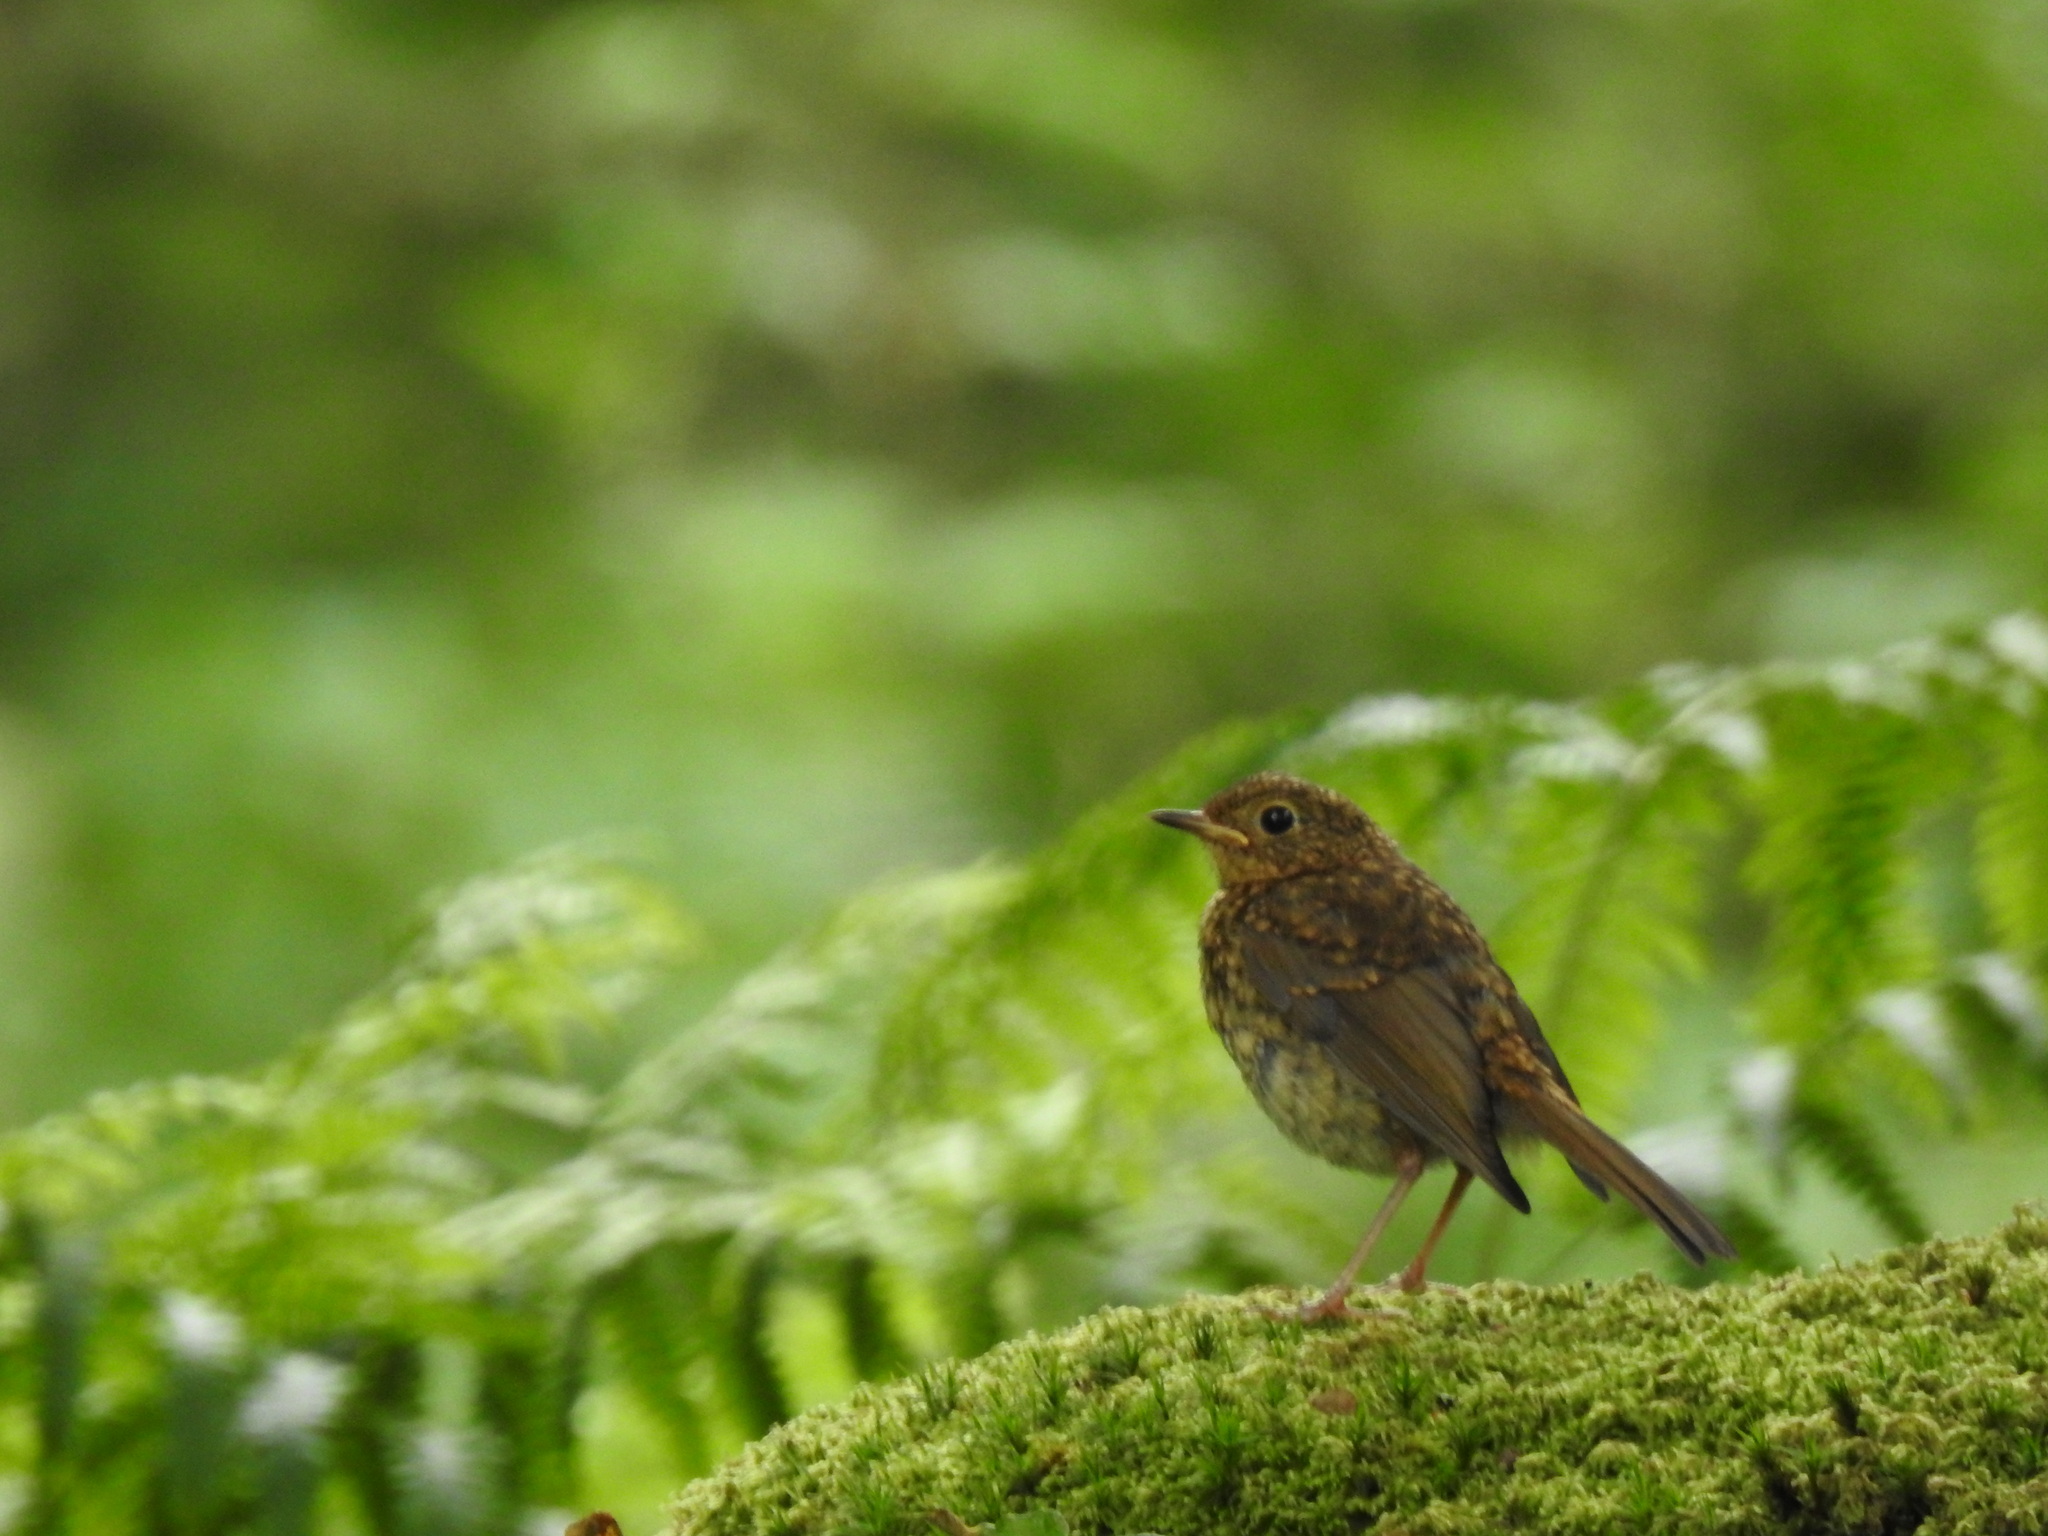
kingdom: Animalia
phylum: Chordata
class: Aves
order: Passeriformes
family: Muscicapidae
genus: Erithacus
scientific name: Erithacus rubecula
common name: European robin
